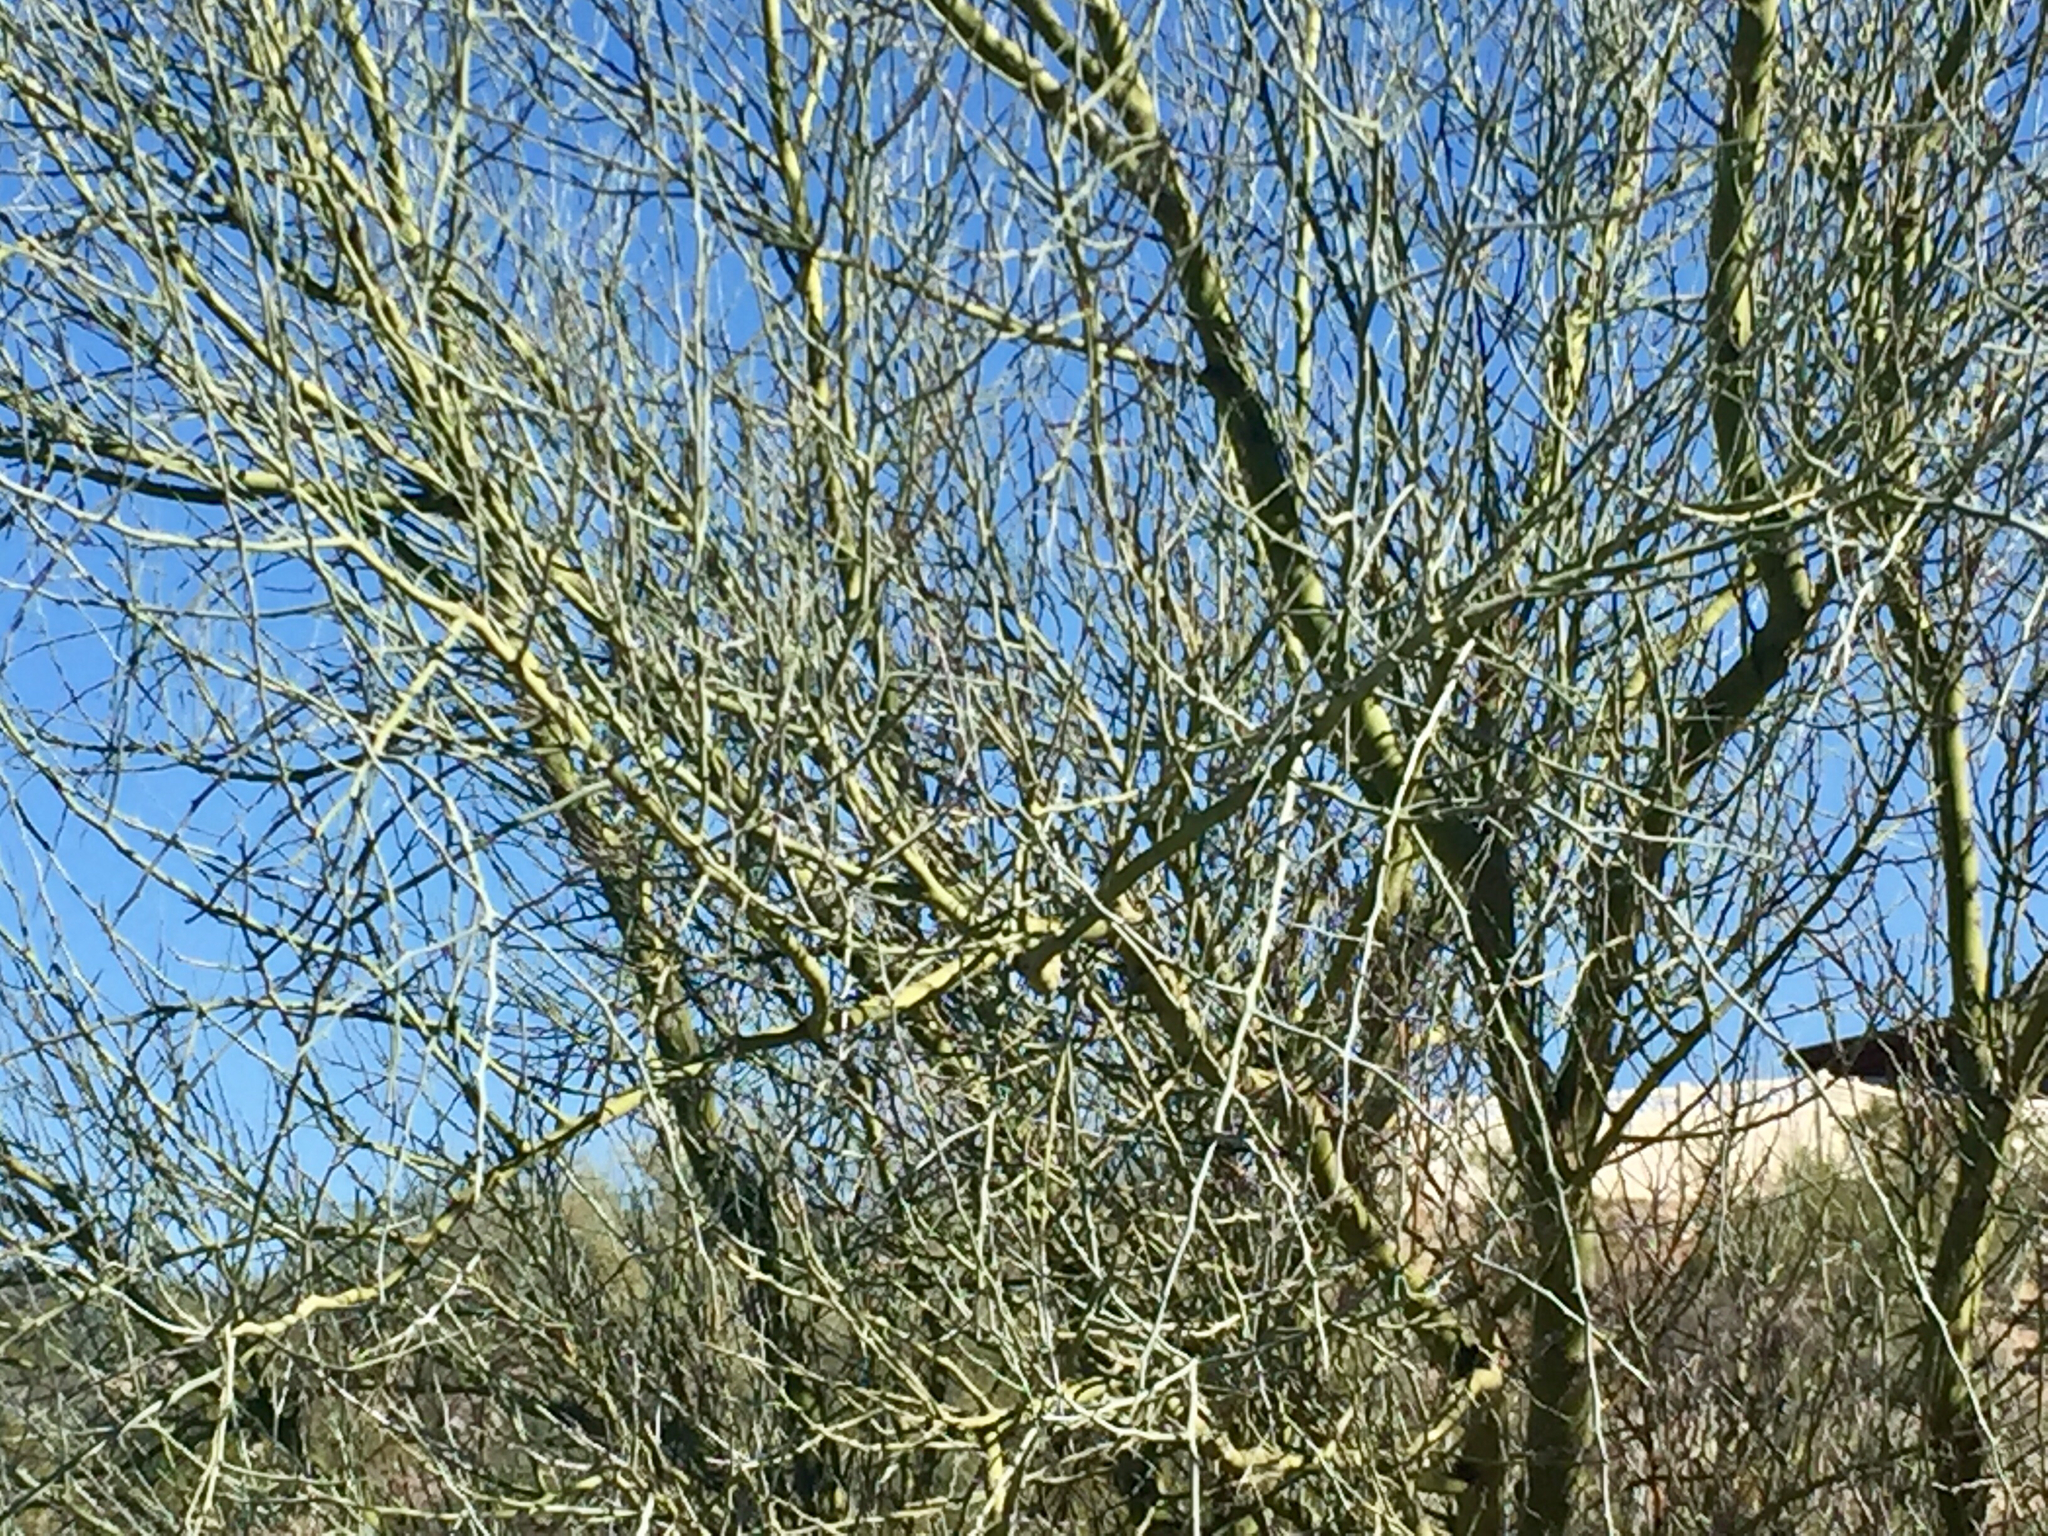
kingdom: Plantae
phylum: Tracheophyta
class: Magnoliopsida
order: Fabales
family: Fabaceae
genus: Parkinsonia
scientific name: Parkinsonia florida
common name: Blue paloverde
